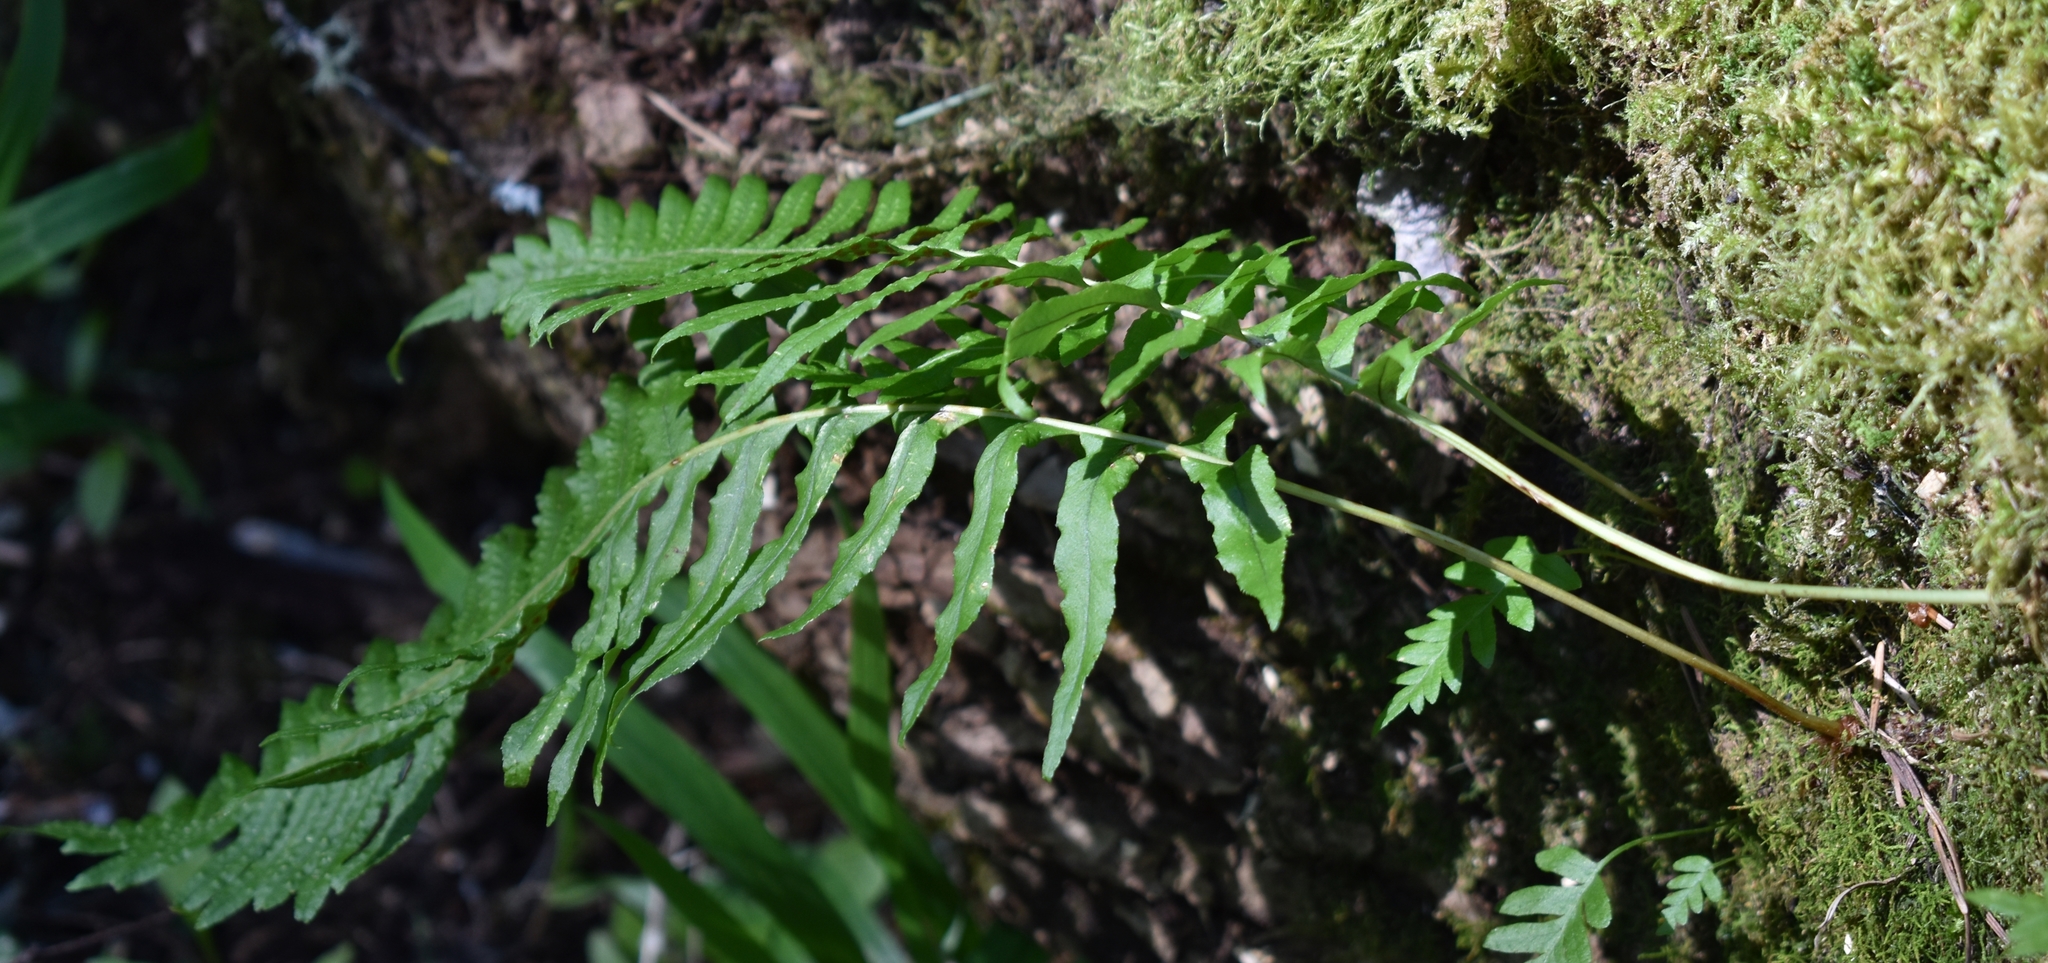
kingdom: Plantae
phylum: Tracheophyta
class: Polypodiopsida
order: Polypodiales
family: Polypodiaceae
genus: Polypodium
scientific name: Polypodium glycyrrhiza
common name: Licorice fern
